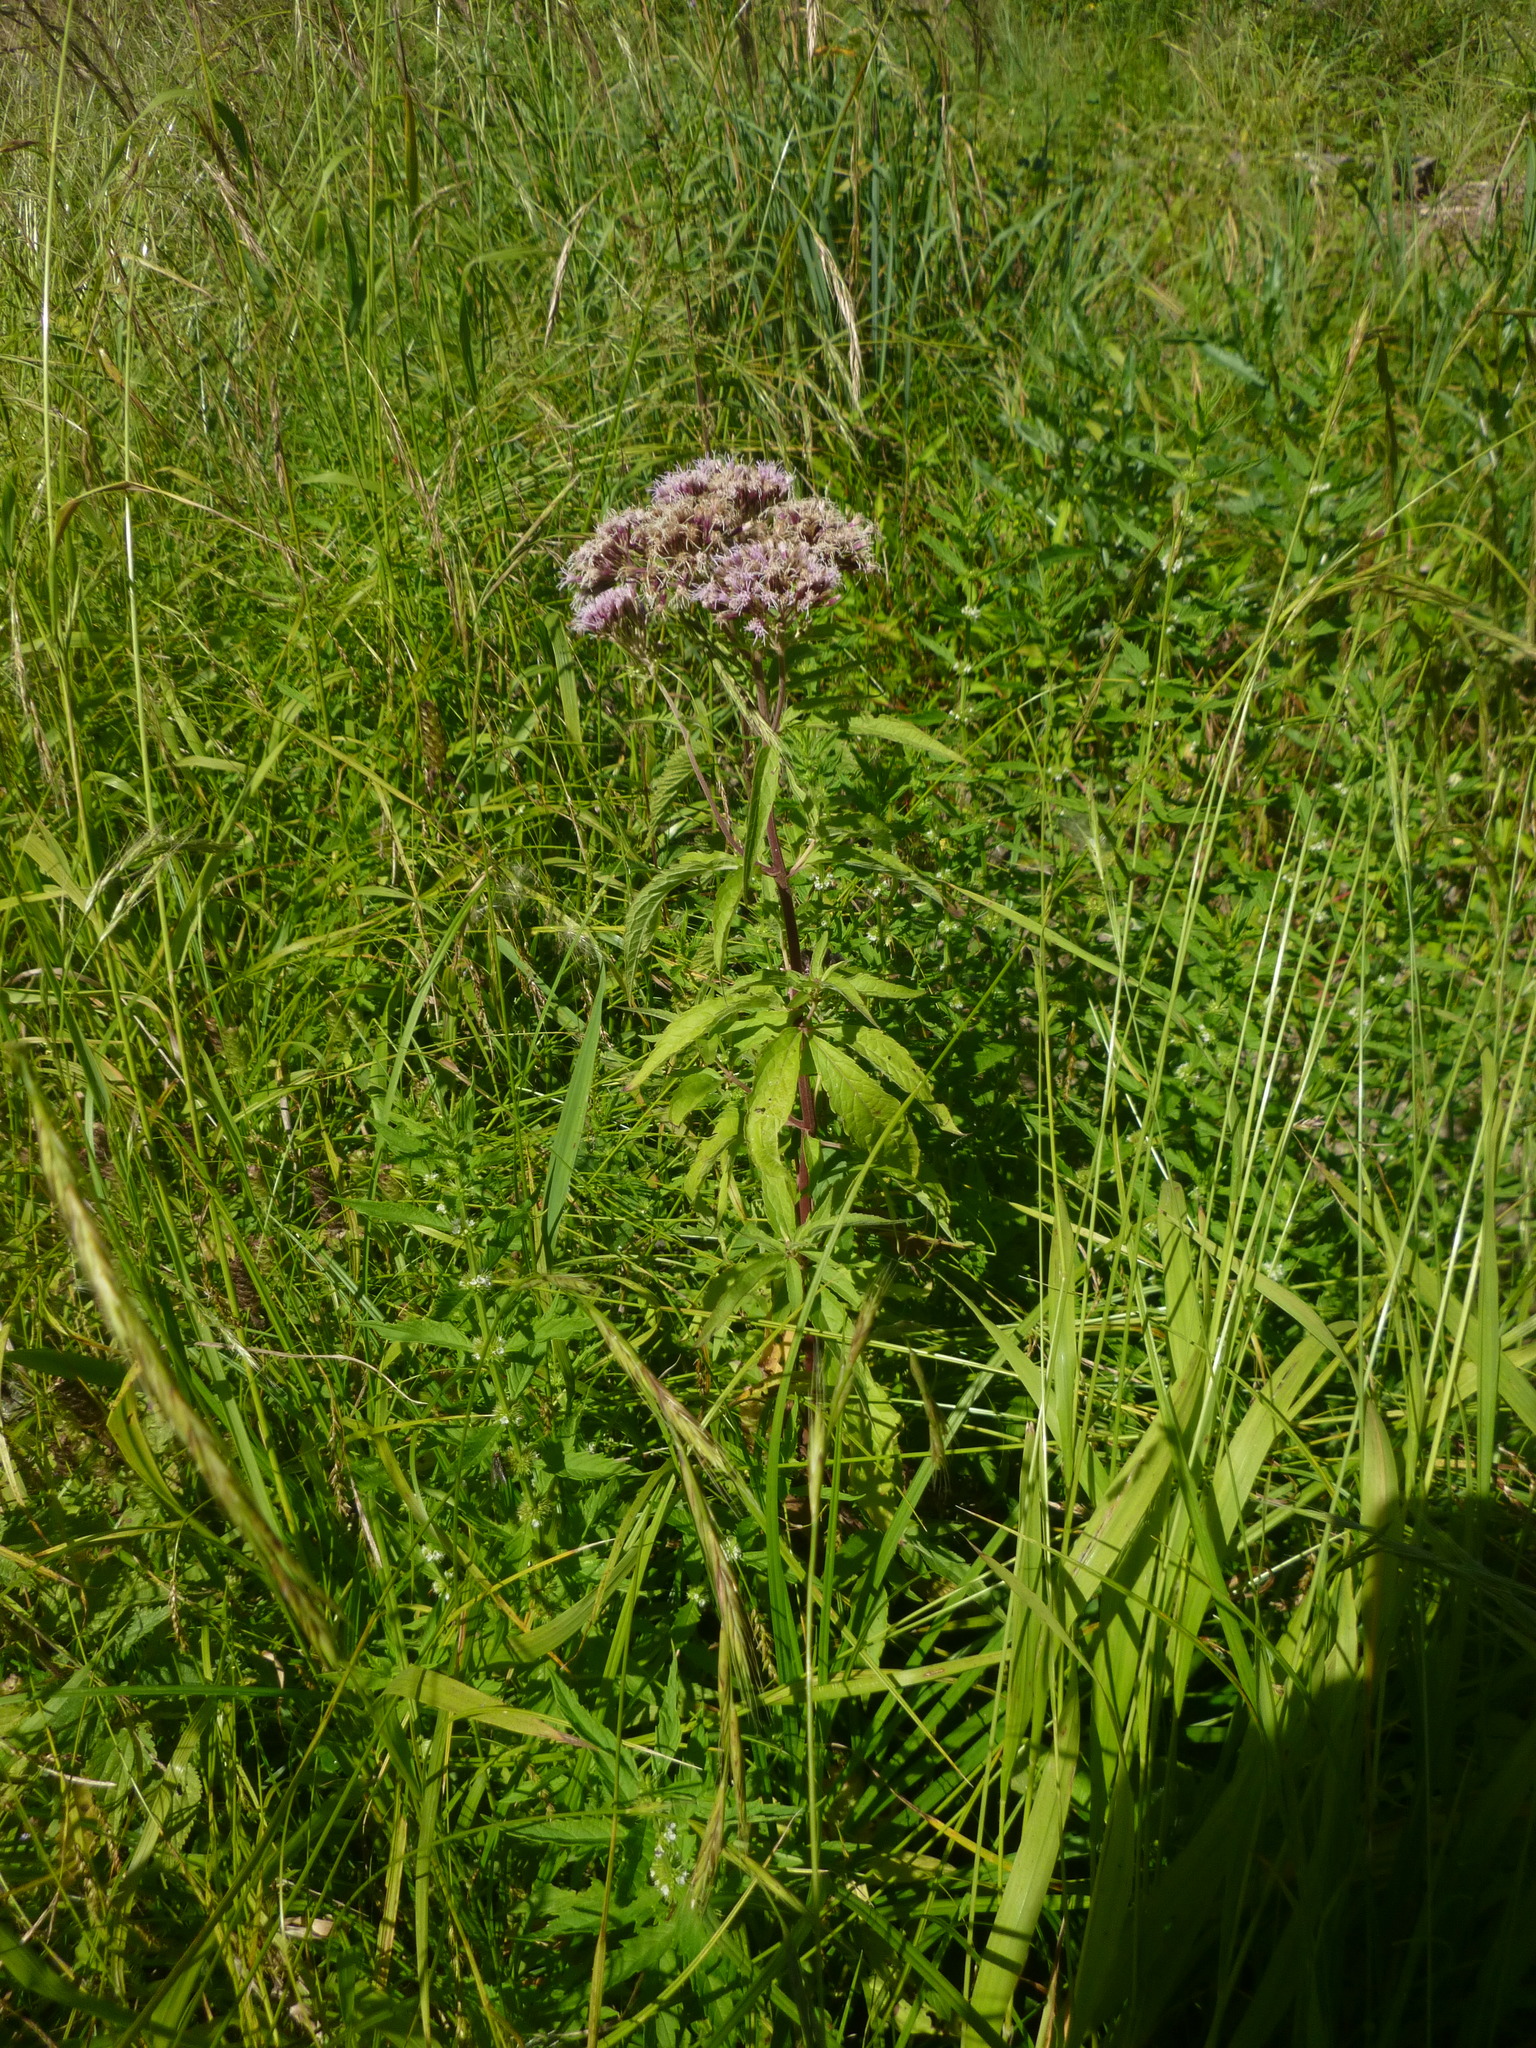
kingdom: Plantae
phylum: Tracheophyta
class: Magnoliopsida
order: Asterales
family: Asteraceae
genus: Eupatorium
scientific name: Eupatorium cannabinum
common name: Hemp-agrimony
